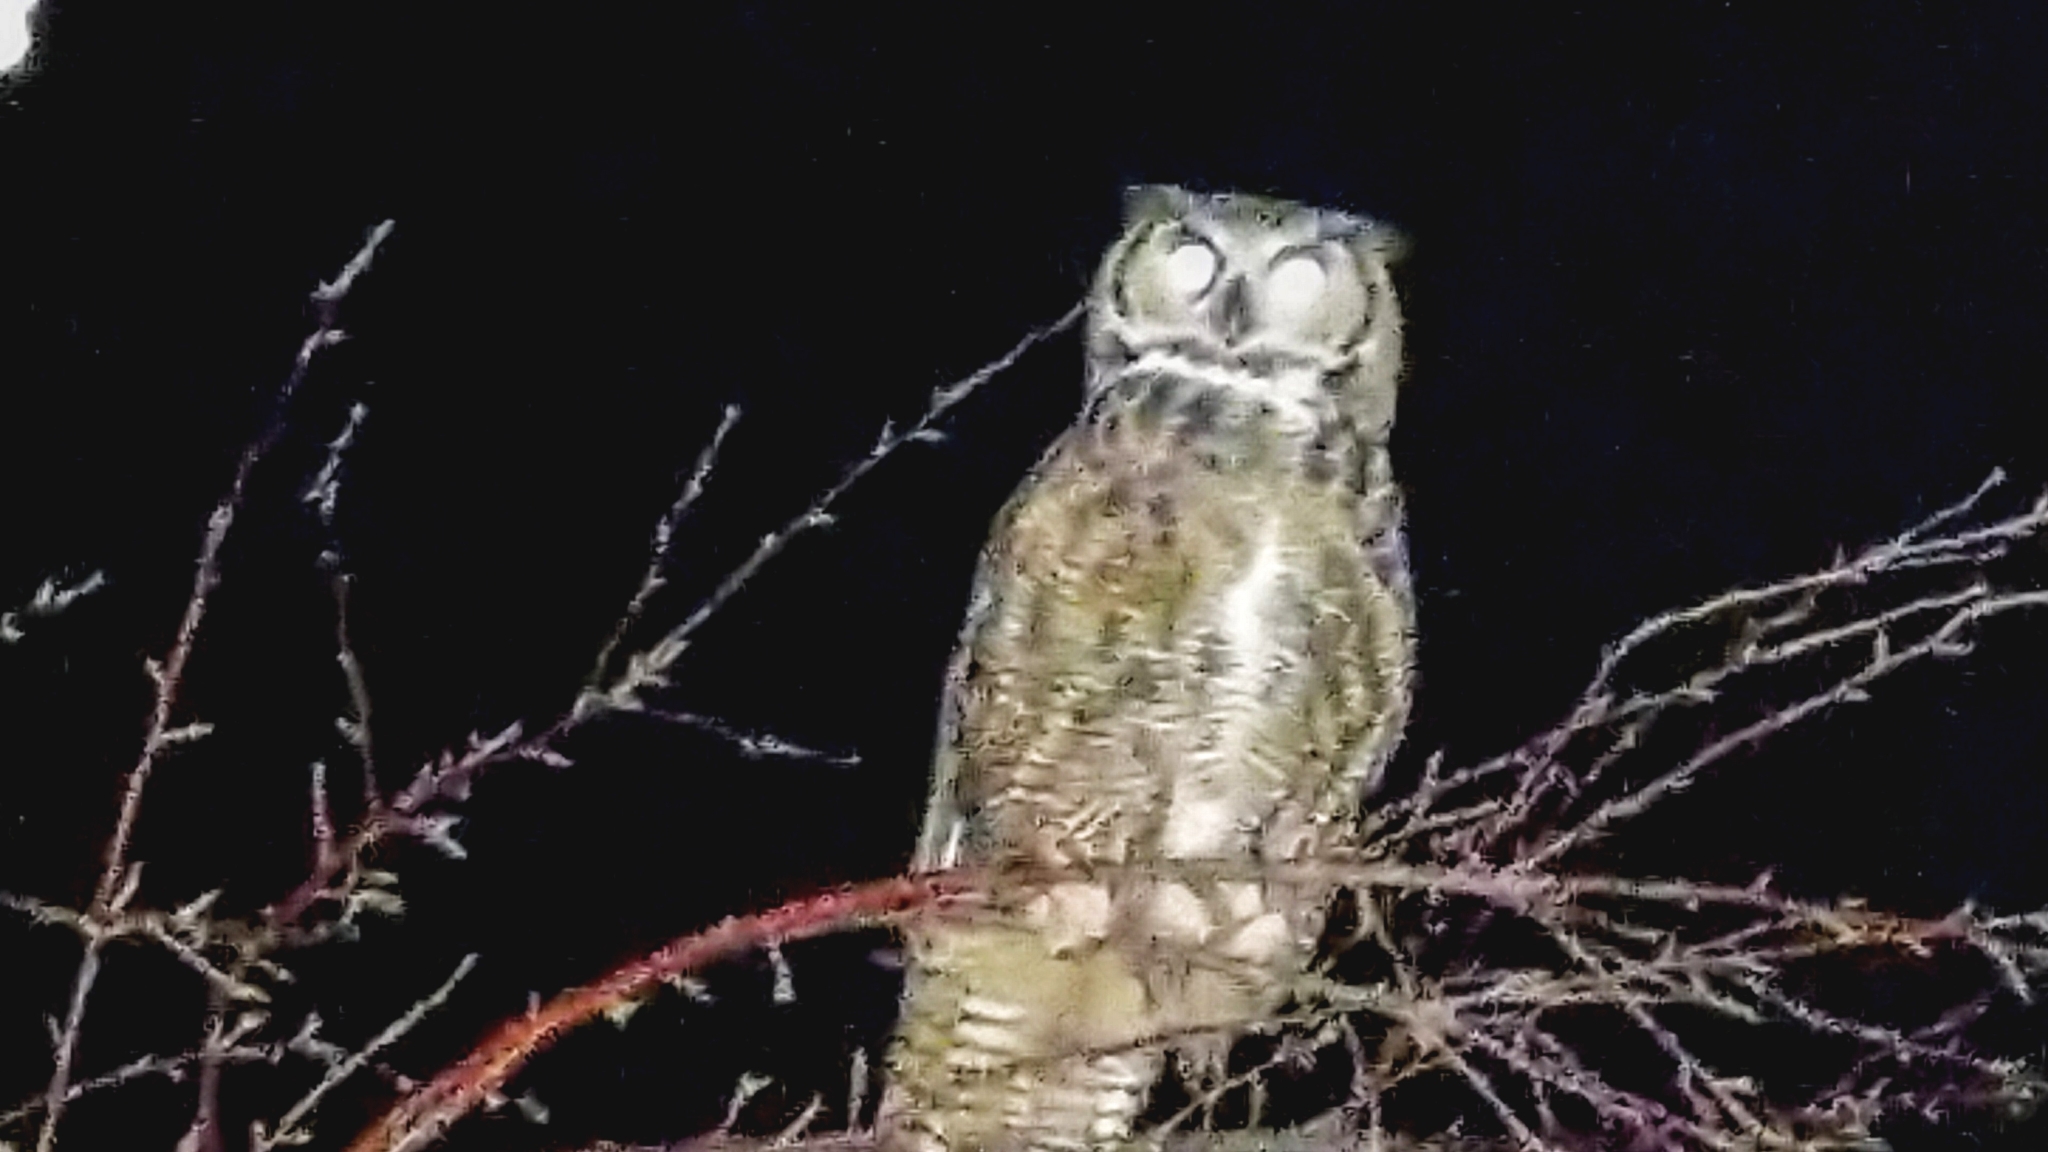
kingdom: Animalia
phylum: Chordata
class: Aves
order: Strigiformes
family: Strigidae
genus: Bubo
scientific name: Bubo virginianus
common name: Great horned owl
